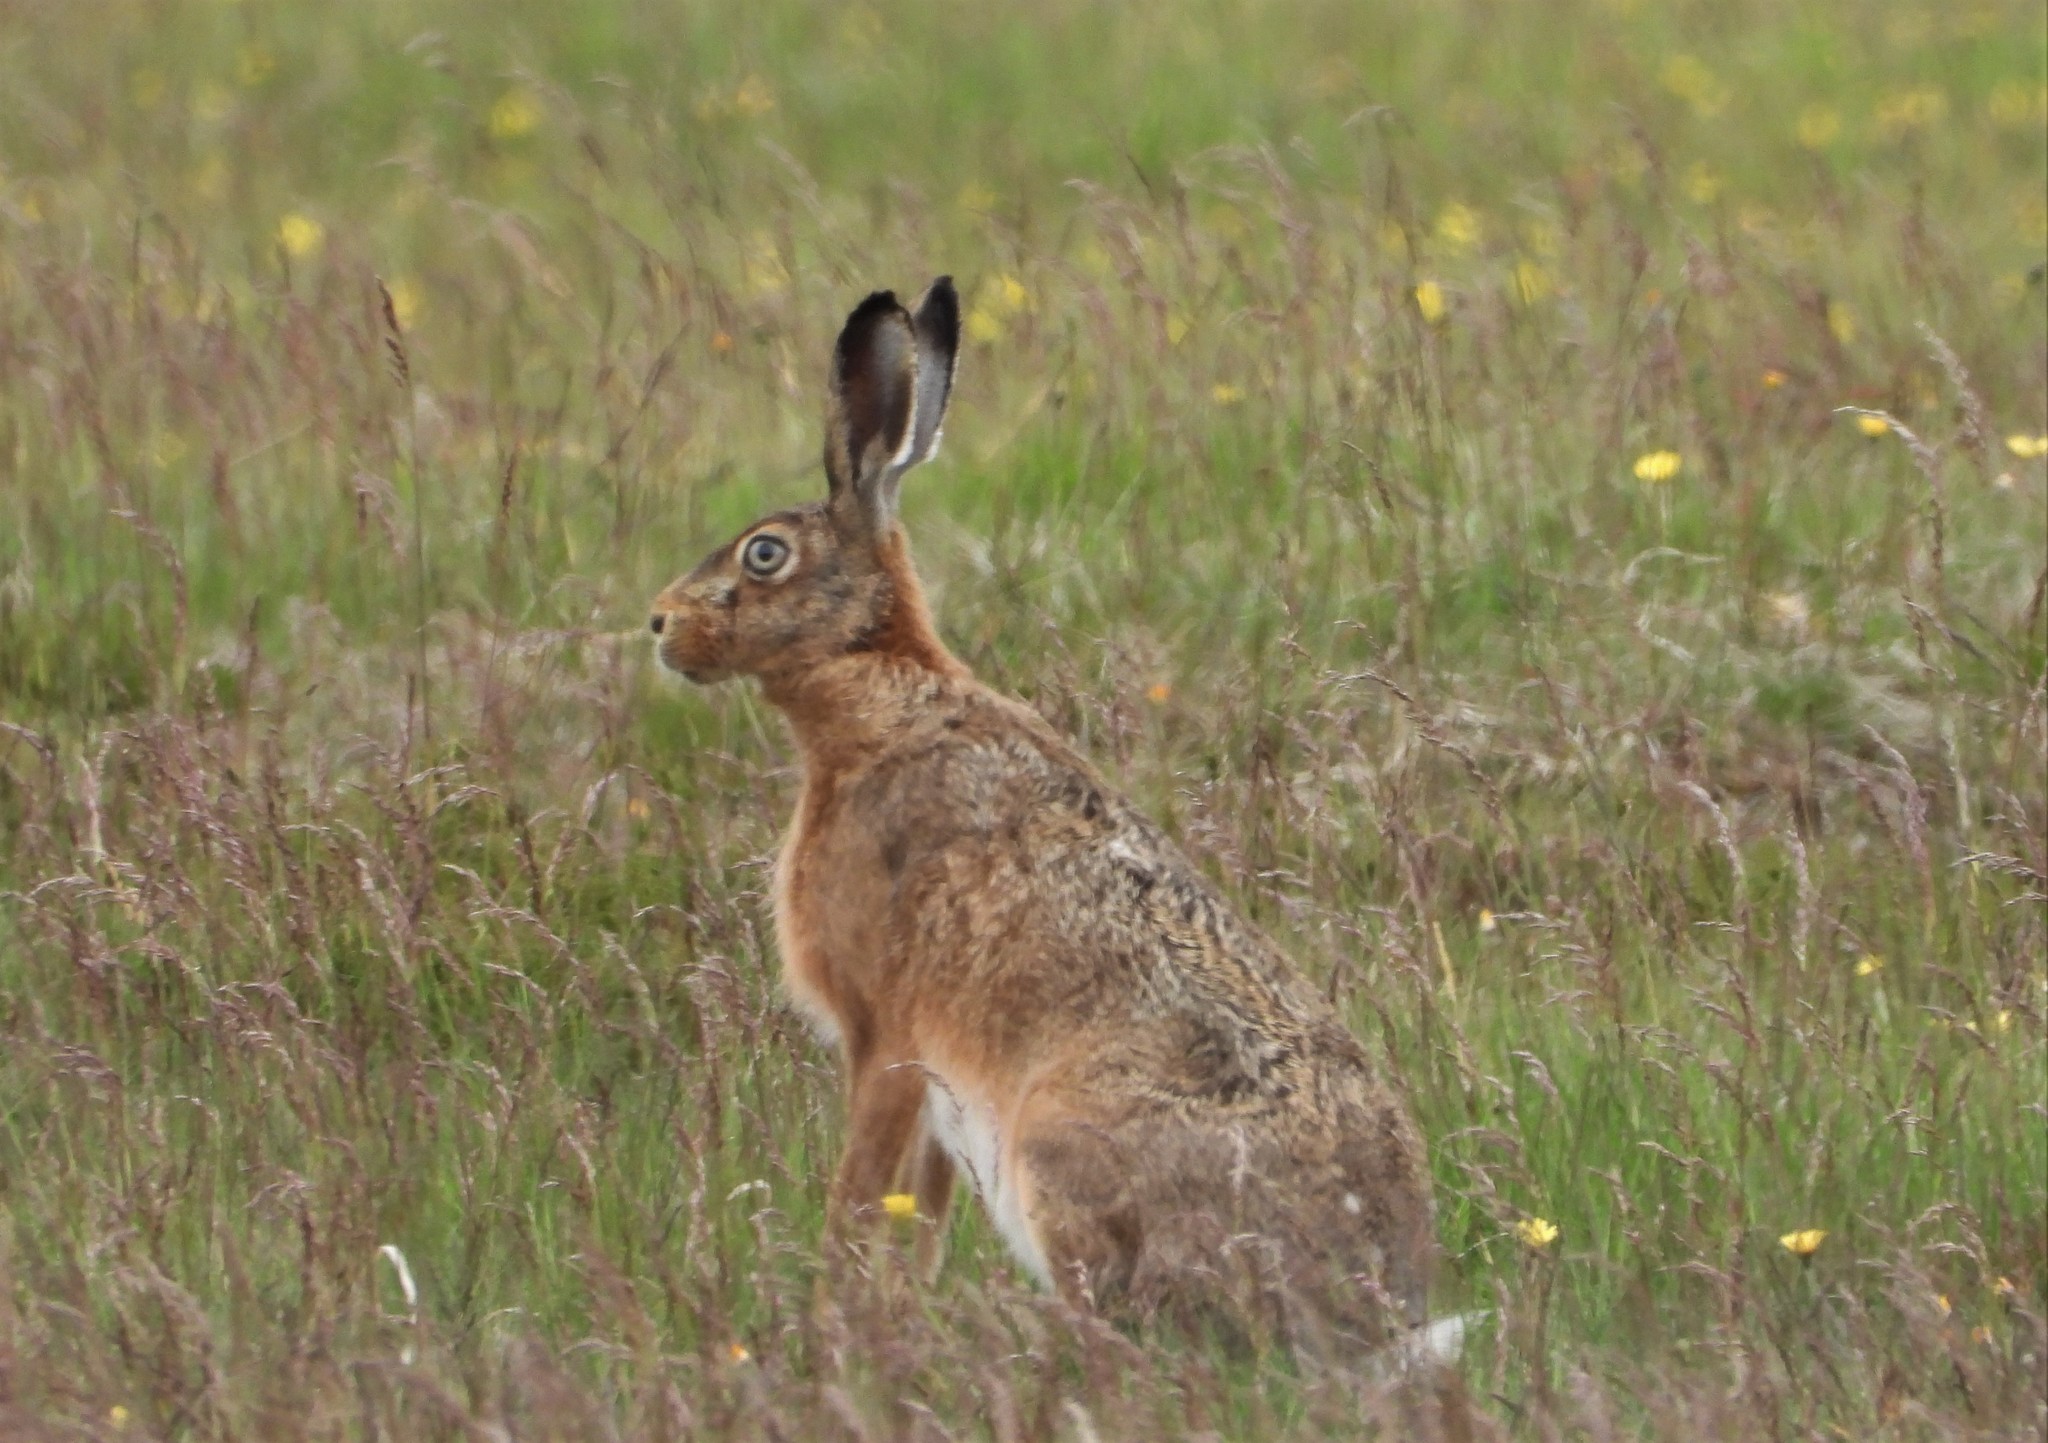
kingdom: Animalia
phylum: Chordata
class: Mammalia
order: Lagomorpha
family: Leporidae
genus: Lepus
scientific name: Lepus europaeus
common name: European hare
